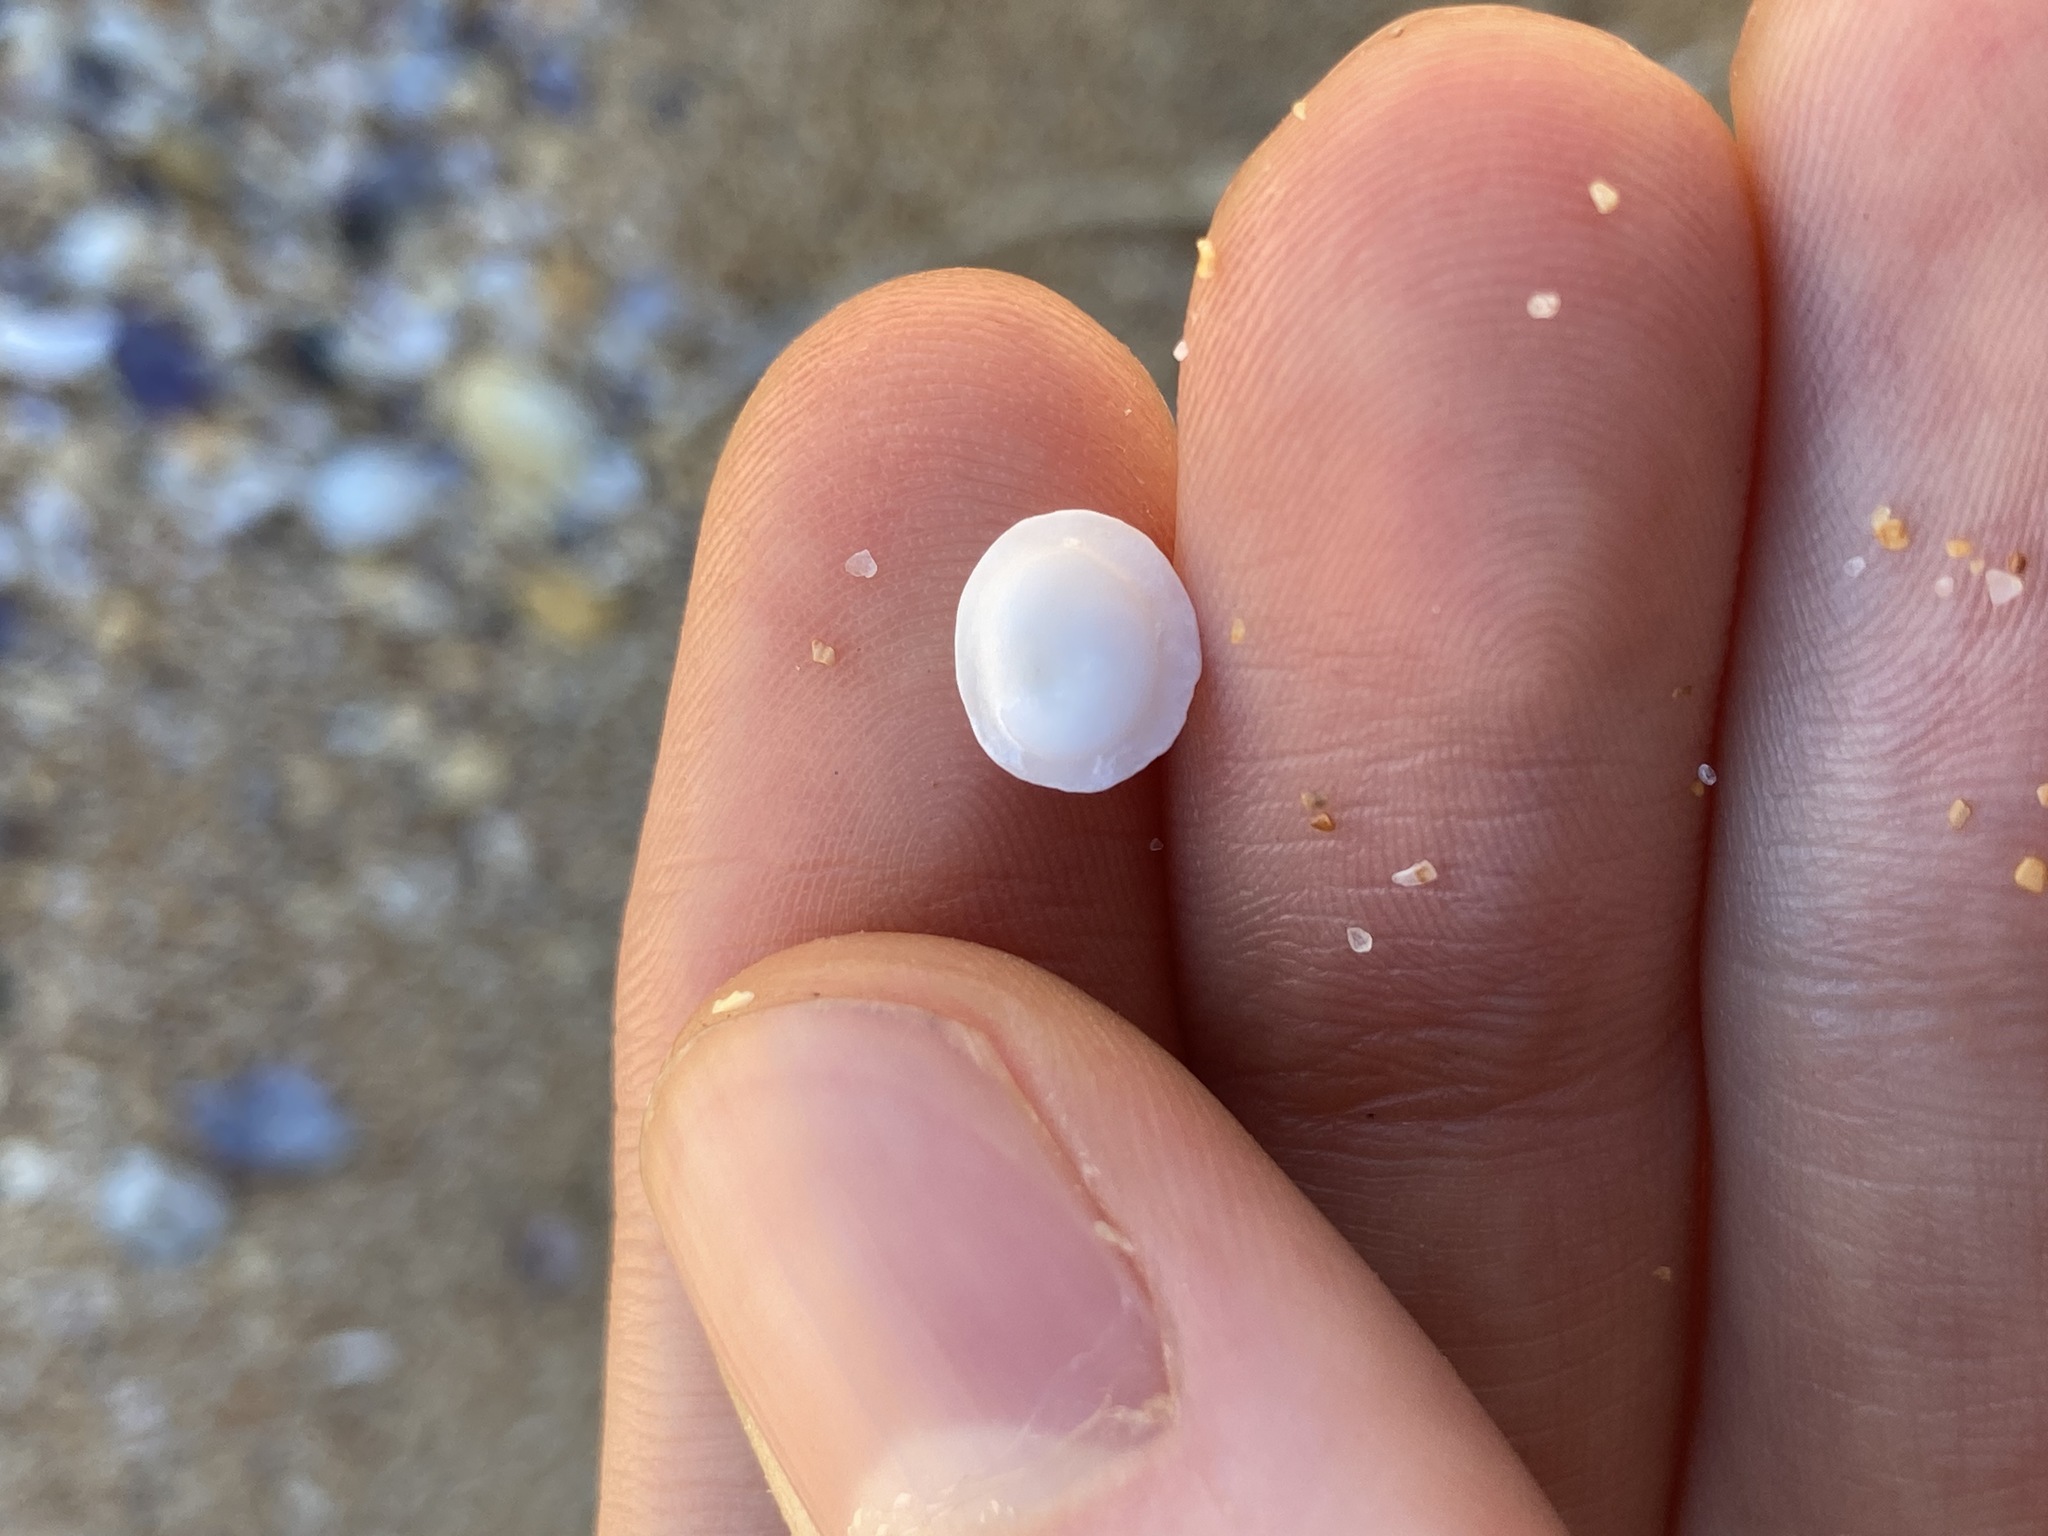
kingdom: Animalia
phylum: Mollusca
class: Gastropoda
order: Trochida
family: Turbinidae
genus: Lunella
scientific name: Lunella undulata
